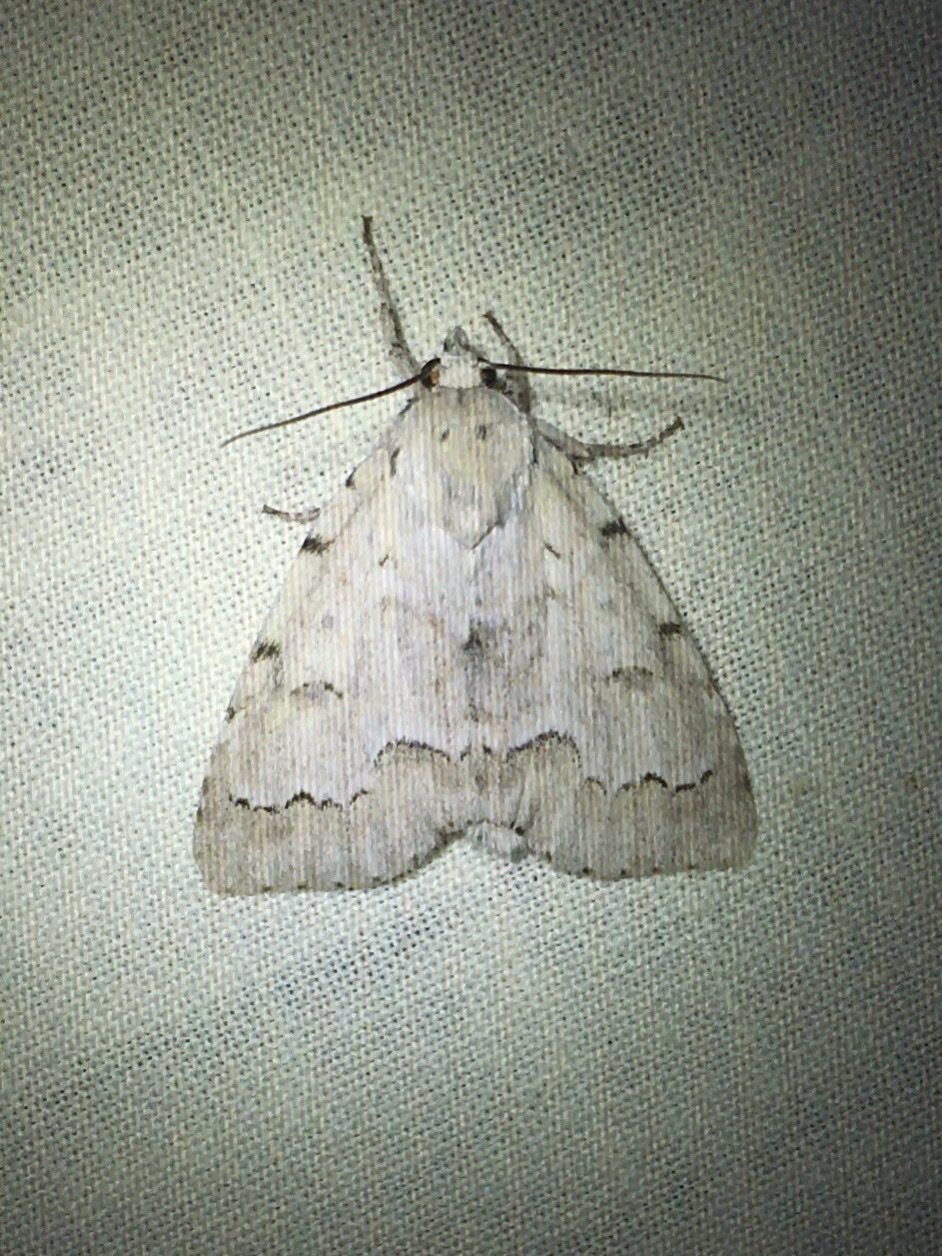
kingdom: Animalia
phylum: Arthropoda
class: Insecta
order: Lepidoptera
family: Noctuidae
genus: Acronicta
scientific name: Acronicta innotata
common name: Unmarked dagger
